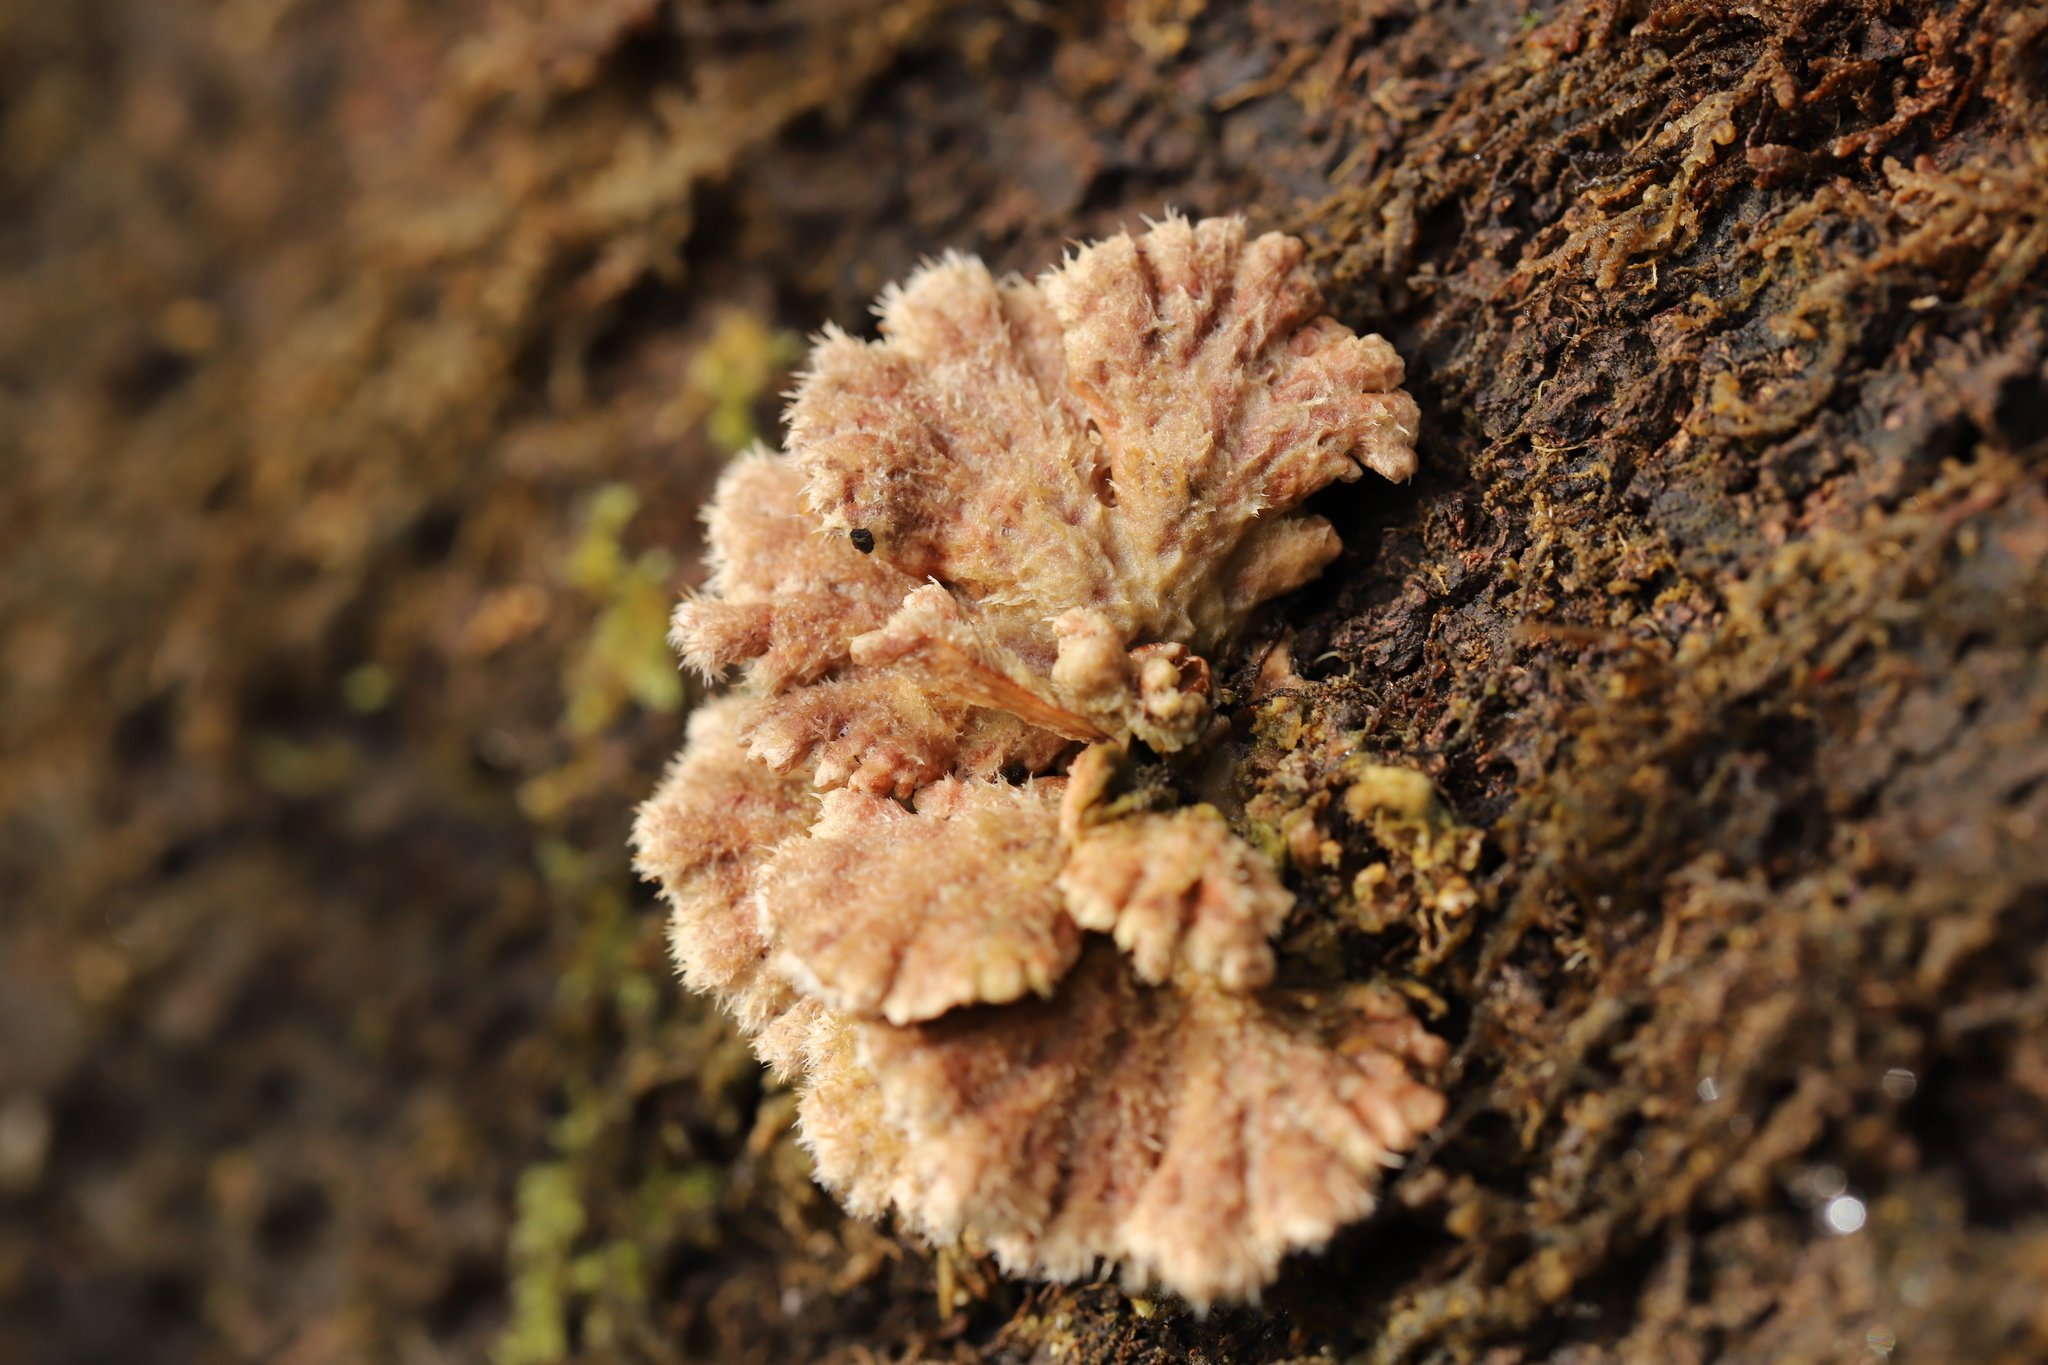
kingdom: Fungi
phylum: Basidiomycota
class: Agaricomycetes
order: Agaricales
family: Schizophyllaceae
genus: Schizophyllum
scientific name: Schizophyllum commune
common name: Common porecrust
